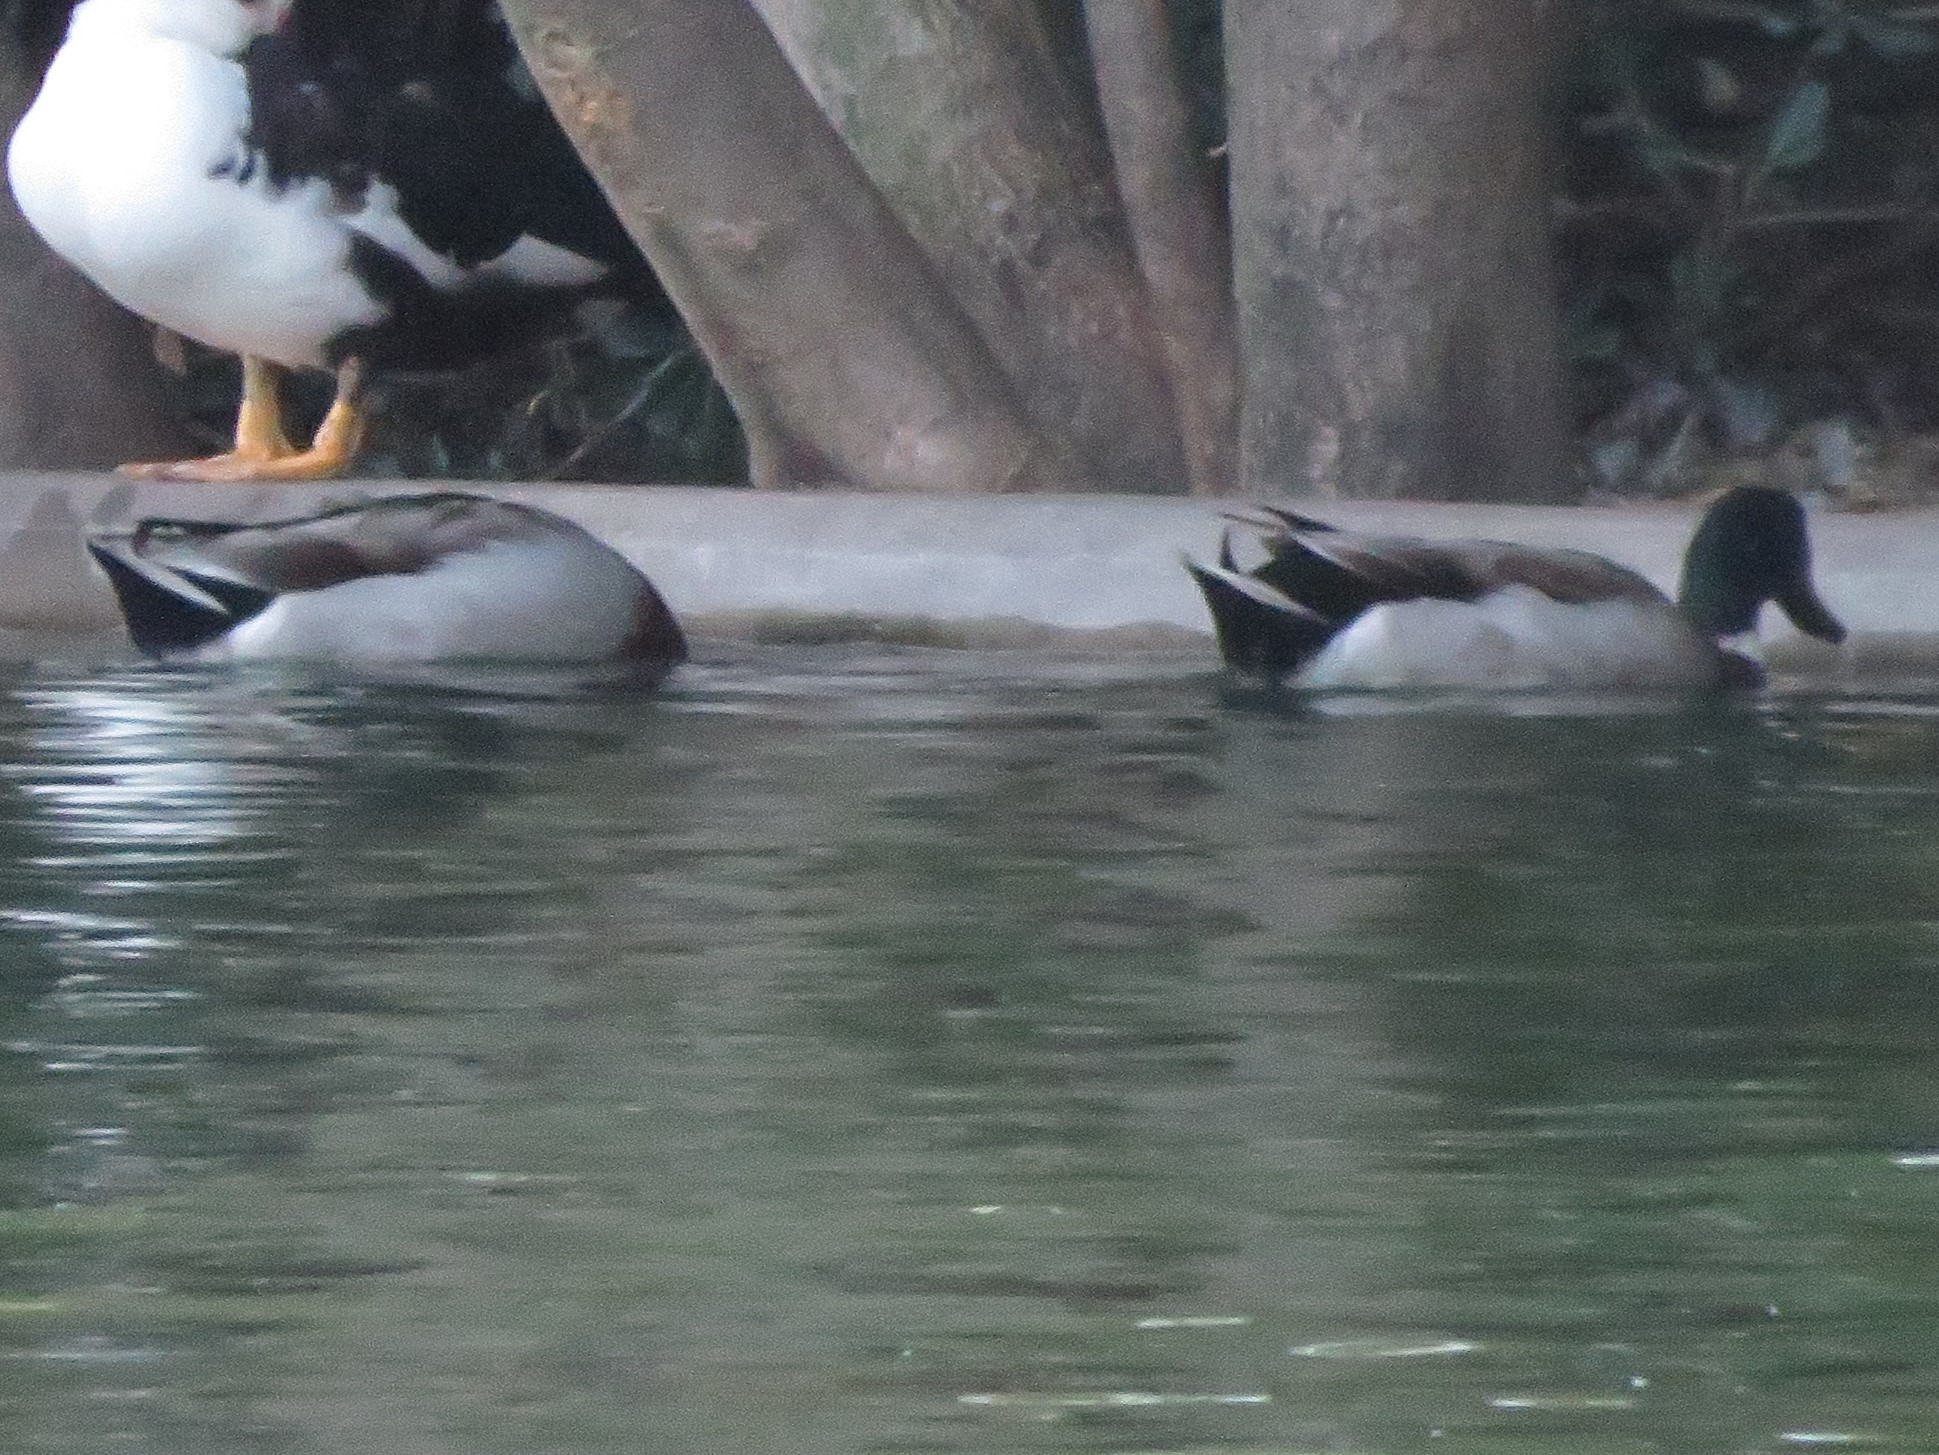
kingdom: Animalia
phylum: Chordata
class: Aves
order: Anseriformes
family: Anatidae
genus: Anas
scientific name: Anas platyrhynchos
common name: Mallard
